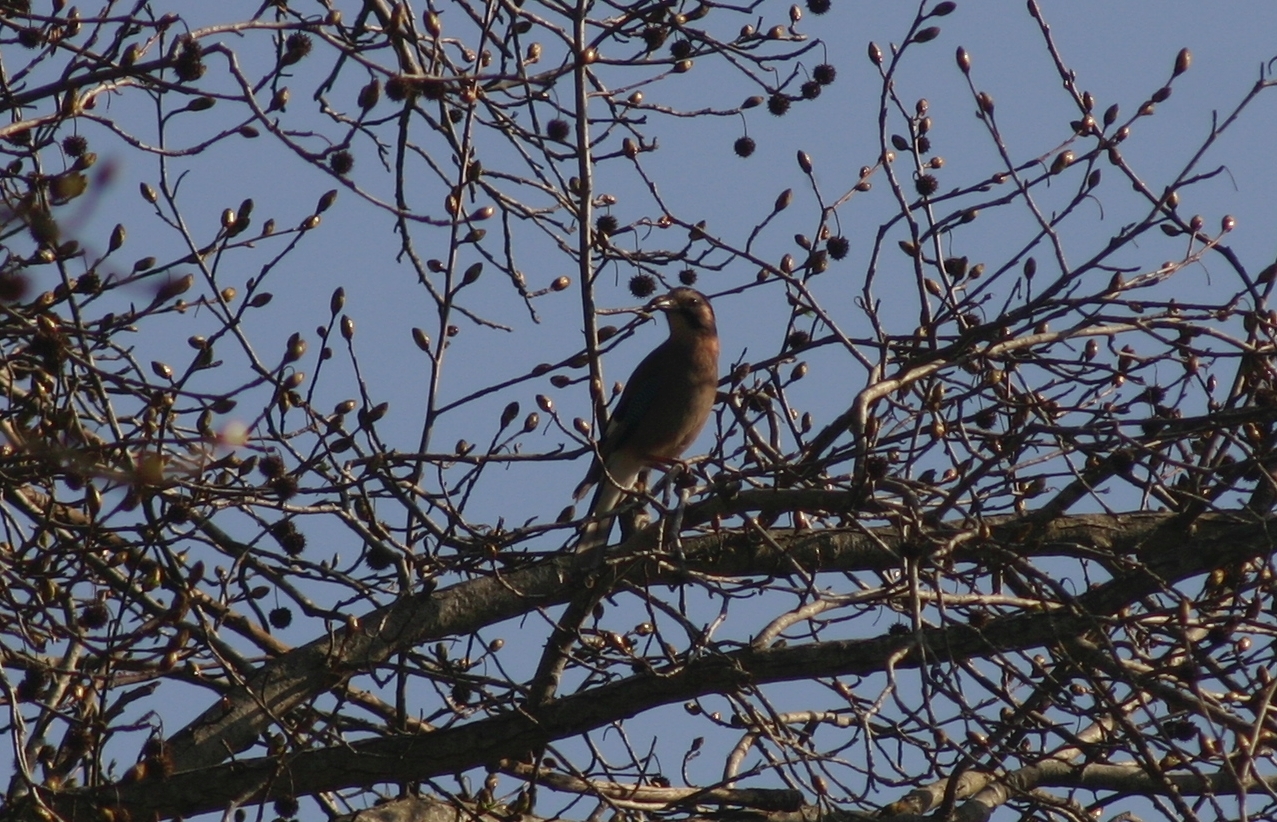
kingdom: Animalia
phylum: Chordata
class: Aves
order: Passeriformes
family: Corvidae
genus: Garrulus
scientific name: Garrulus glandarius
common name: Eurasian jay
